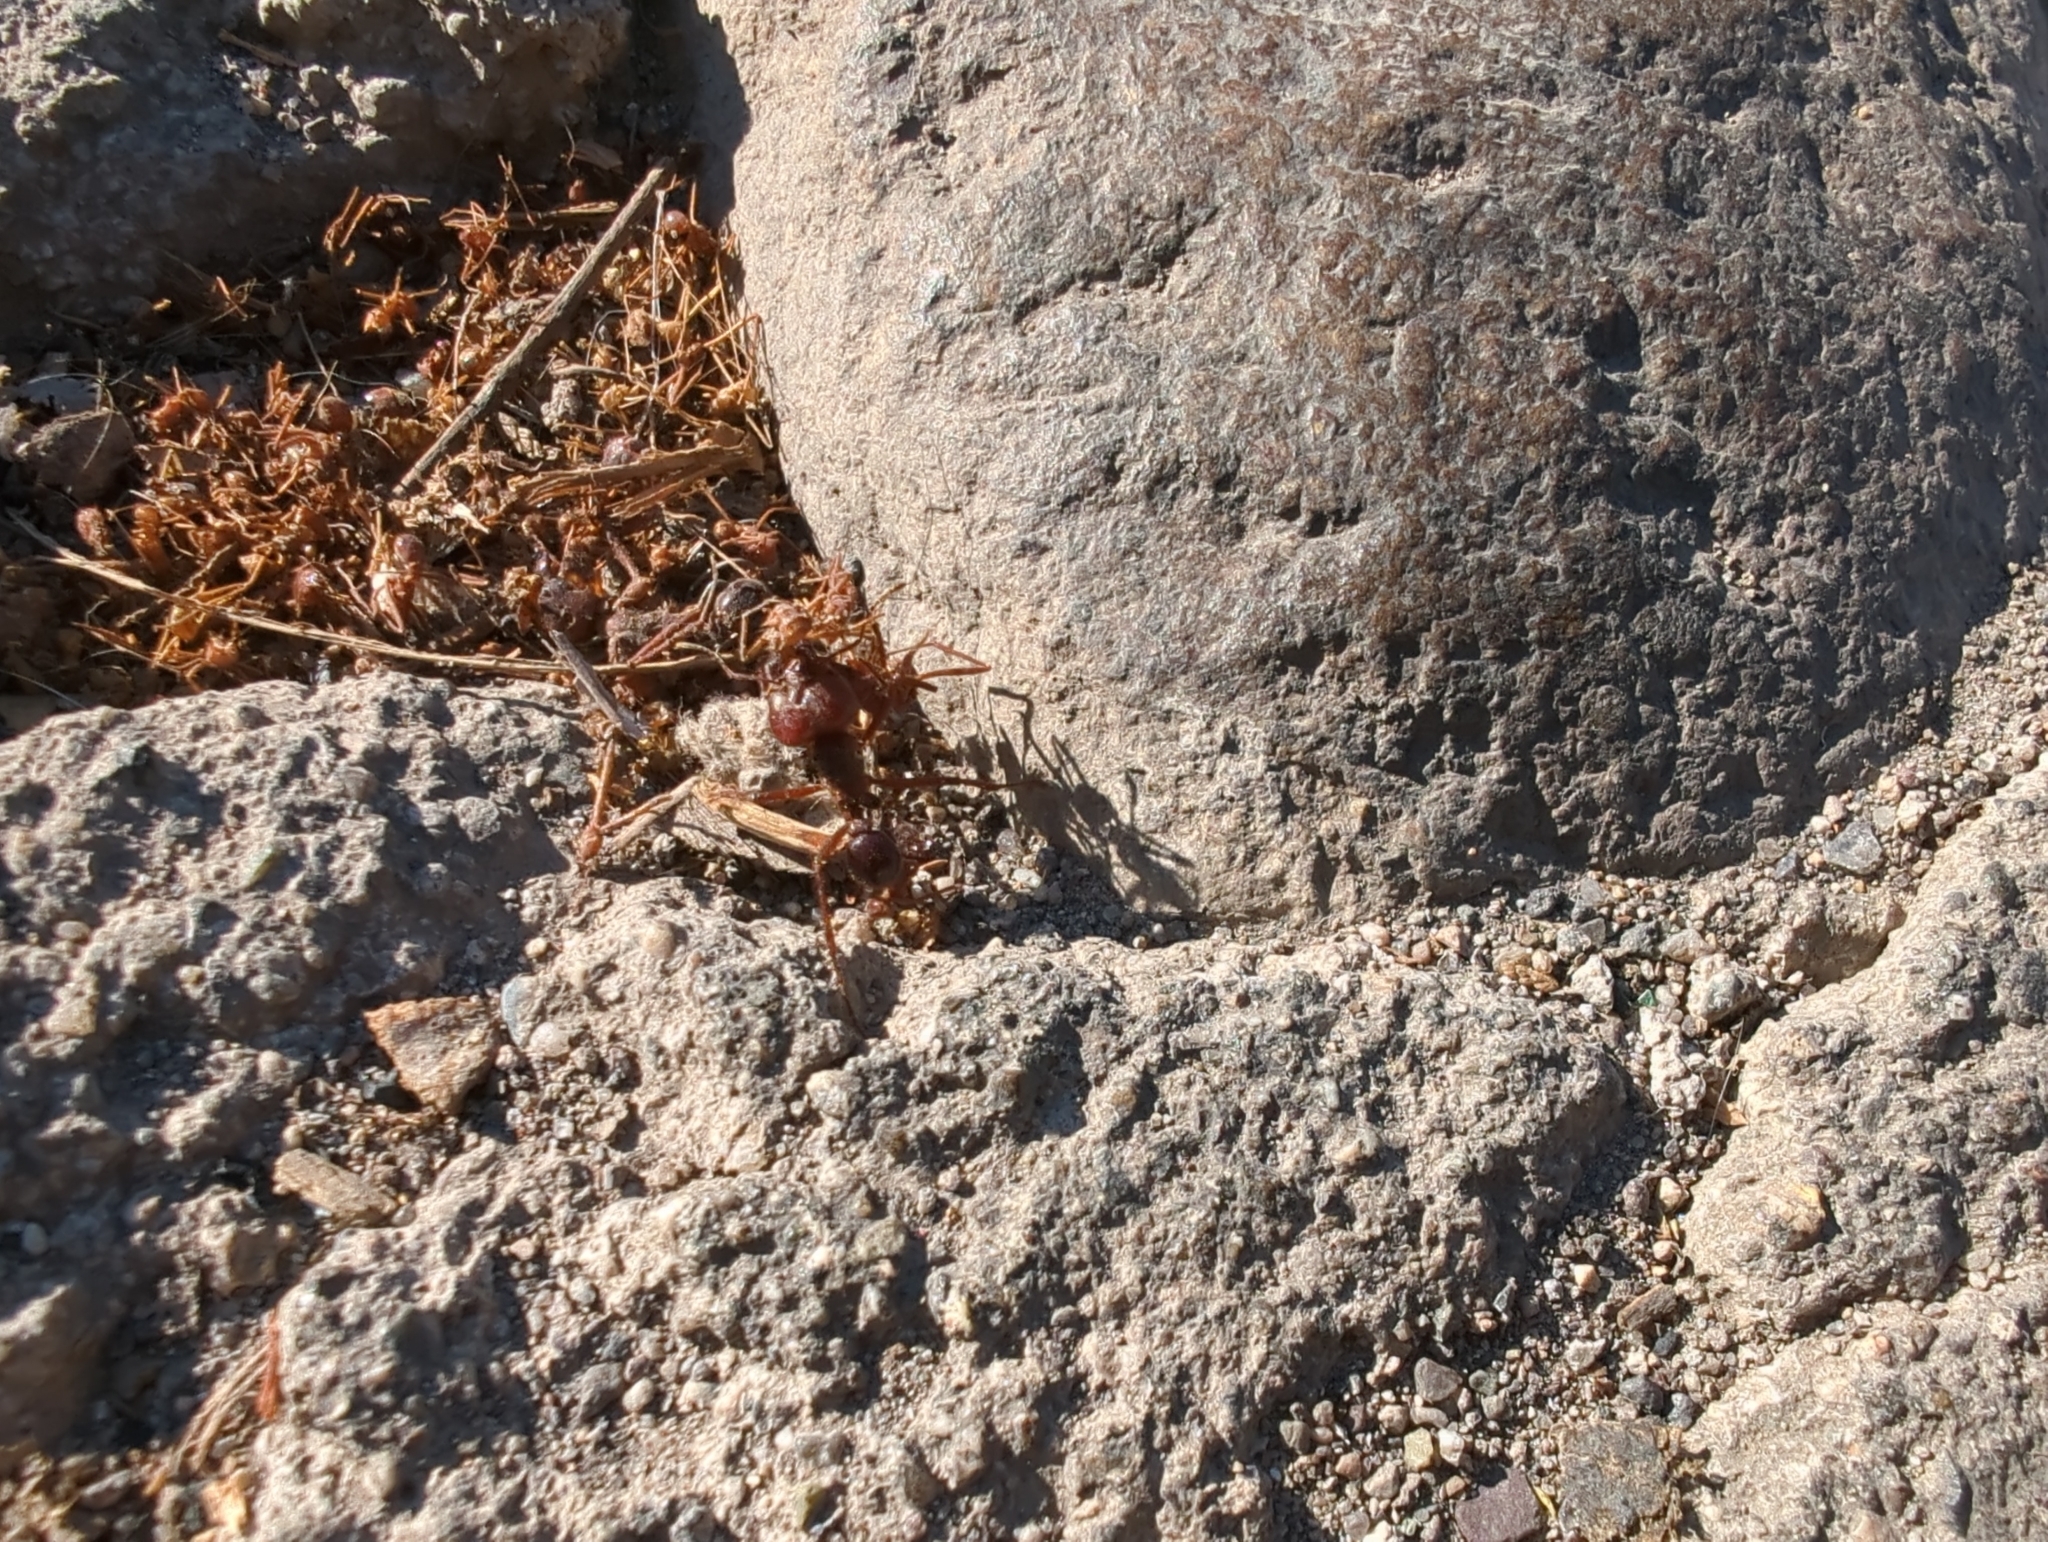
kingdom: Animalia
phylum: Arthropoda
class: Insecta
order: Hymenoptera
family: Formicidae
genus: Atta
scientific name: Atta mexicana
